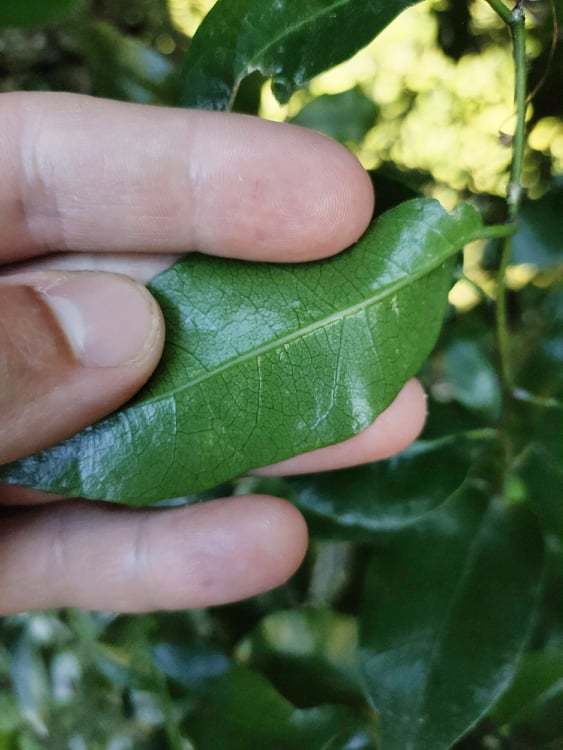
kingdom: Plantae
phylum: Tracheophyta
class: Magnoliopsida
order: Malpighiales
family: Passifloraceae
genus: Passiflora
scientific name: Passiflora tetrandra
